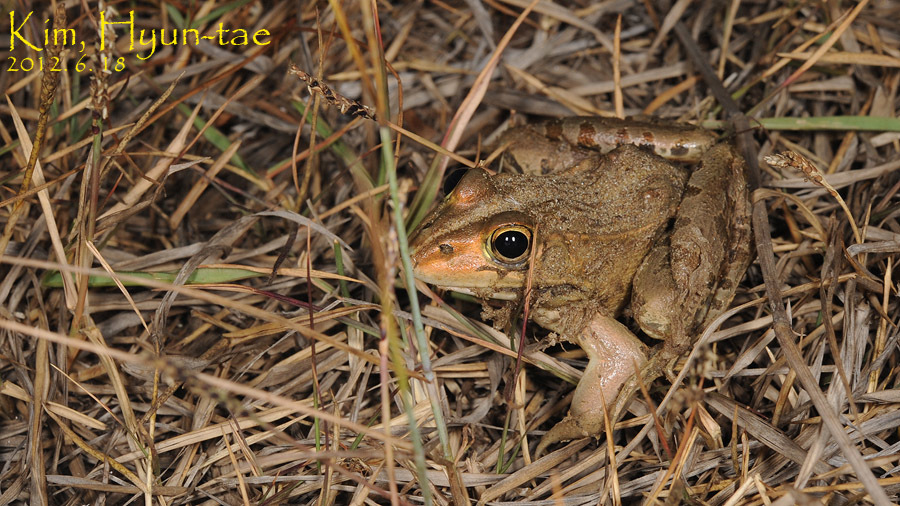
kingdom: Animalia
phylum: Chordata
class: Amphibia
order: Anura
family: Ranidae
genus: Pelophylax
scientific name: Pelophylax nigromaculatus
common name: Black-spotted pond frog
